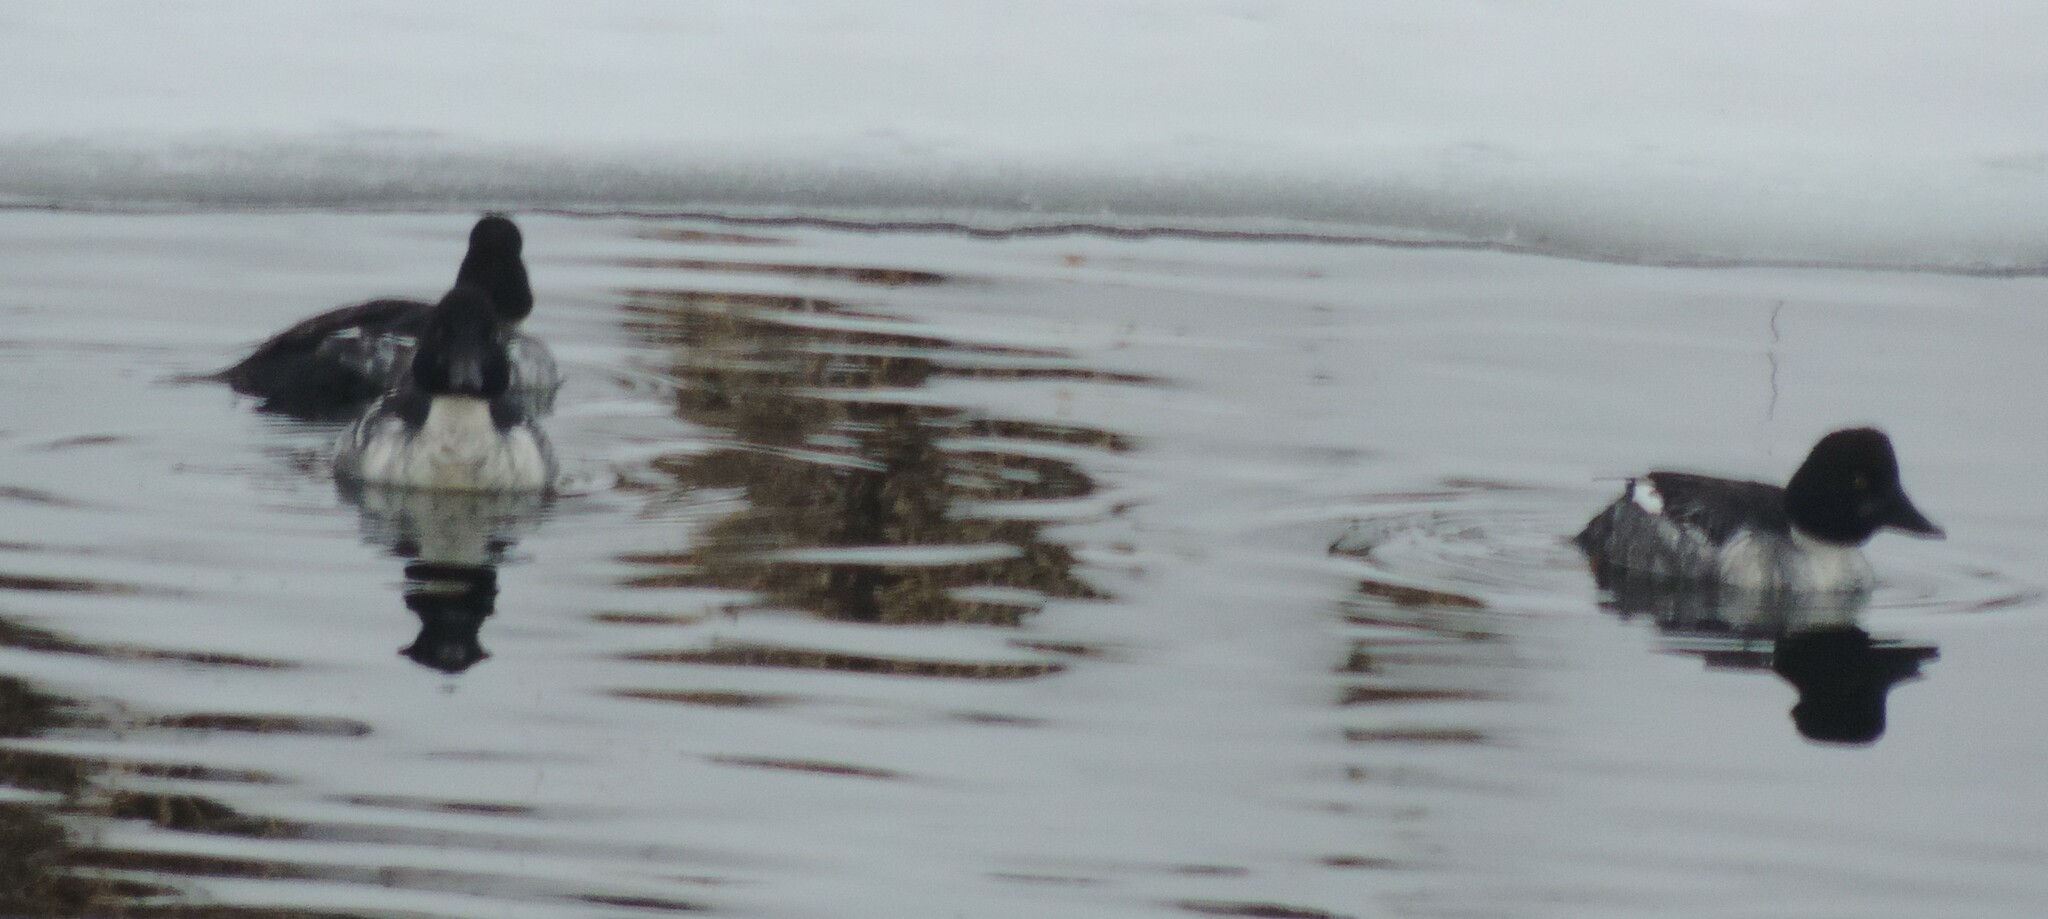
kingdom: Animalia
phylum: Chordata
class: Aves
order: Anseriformes
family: Anatidae
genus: Bucephala
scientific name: Bucephala clangula
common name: Common goldeneye
